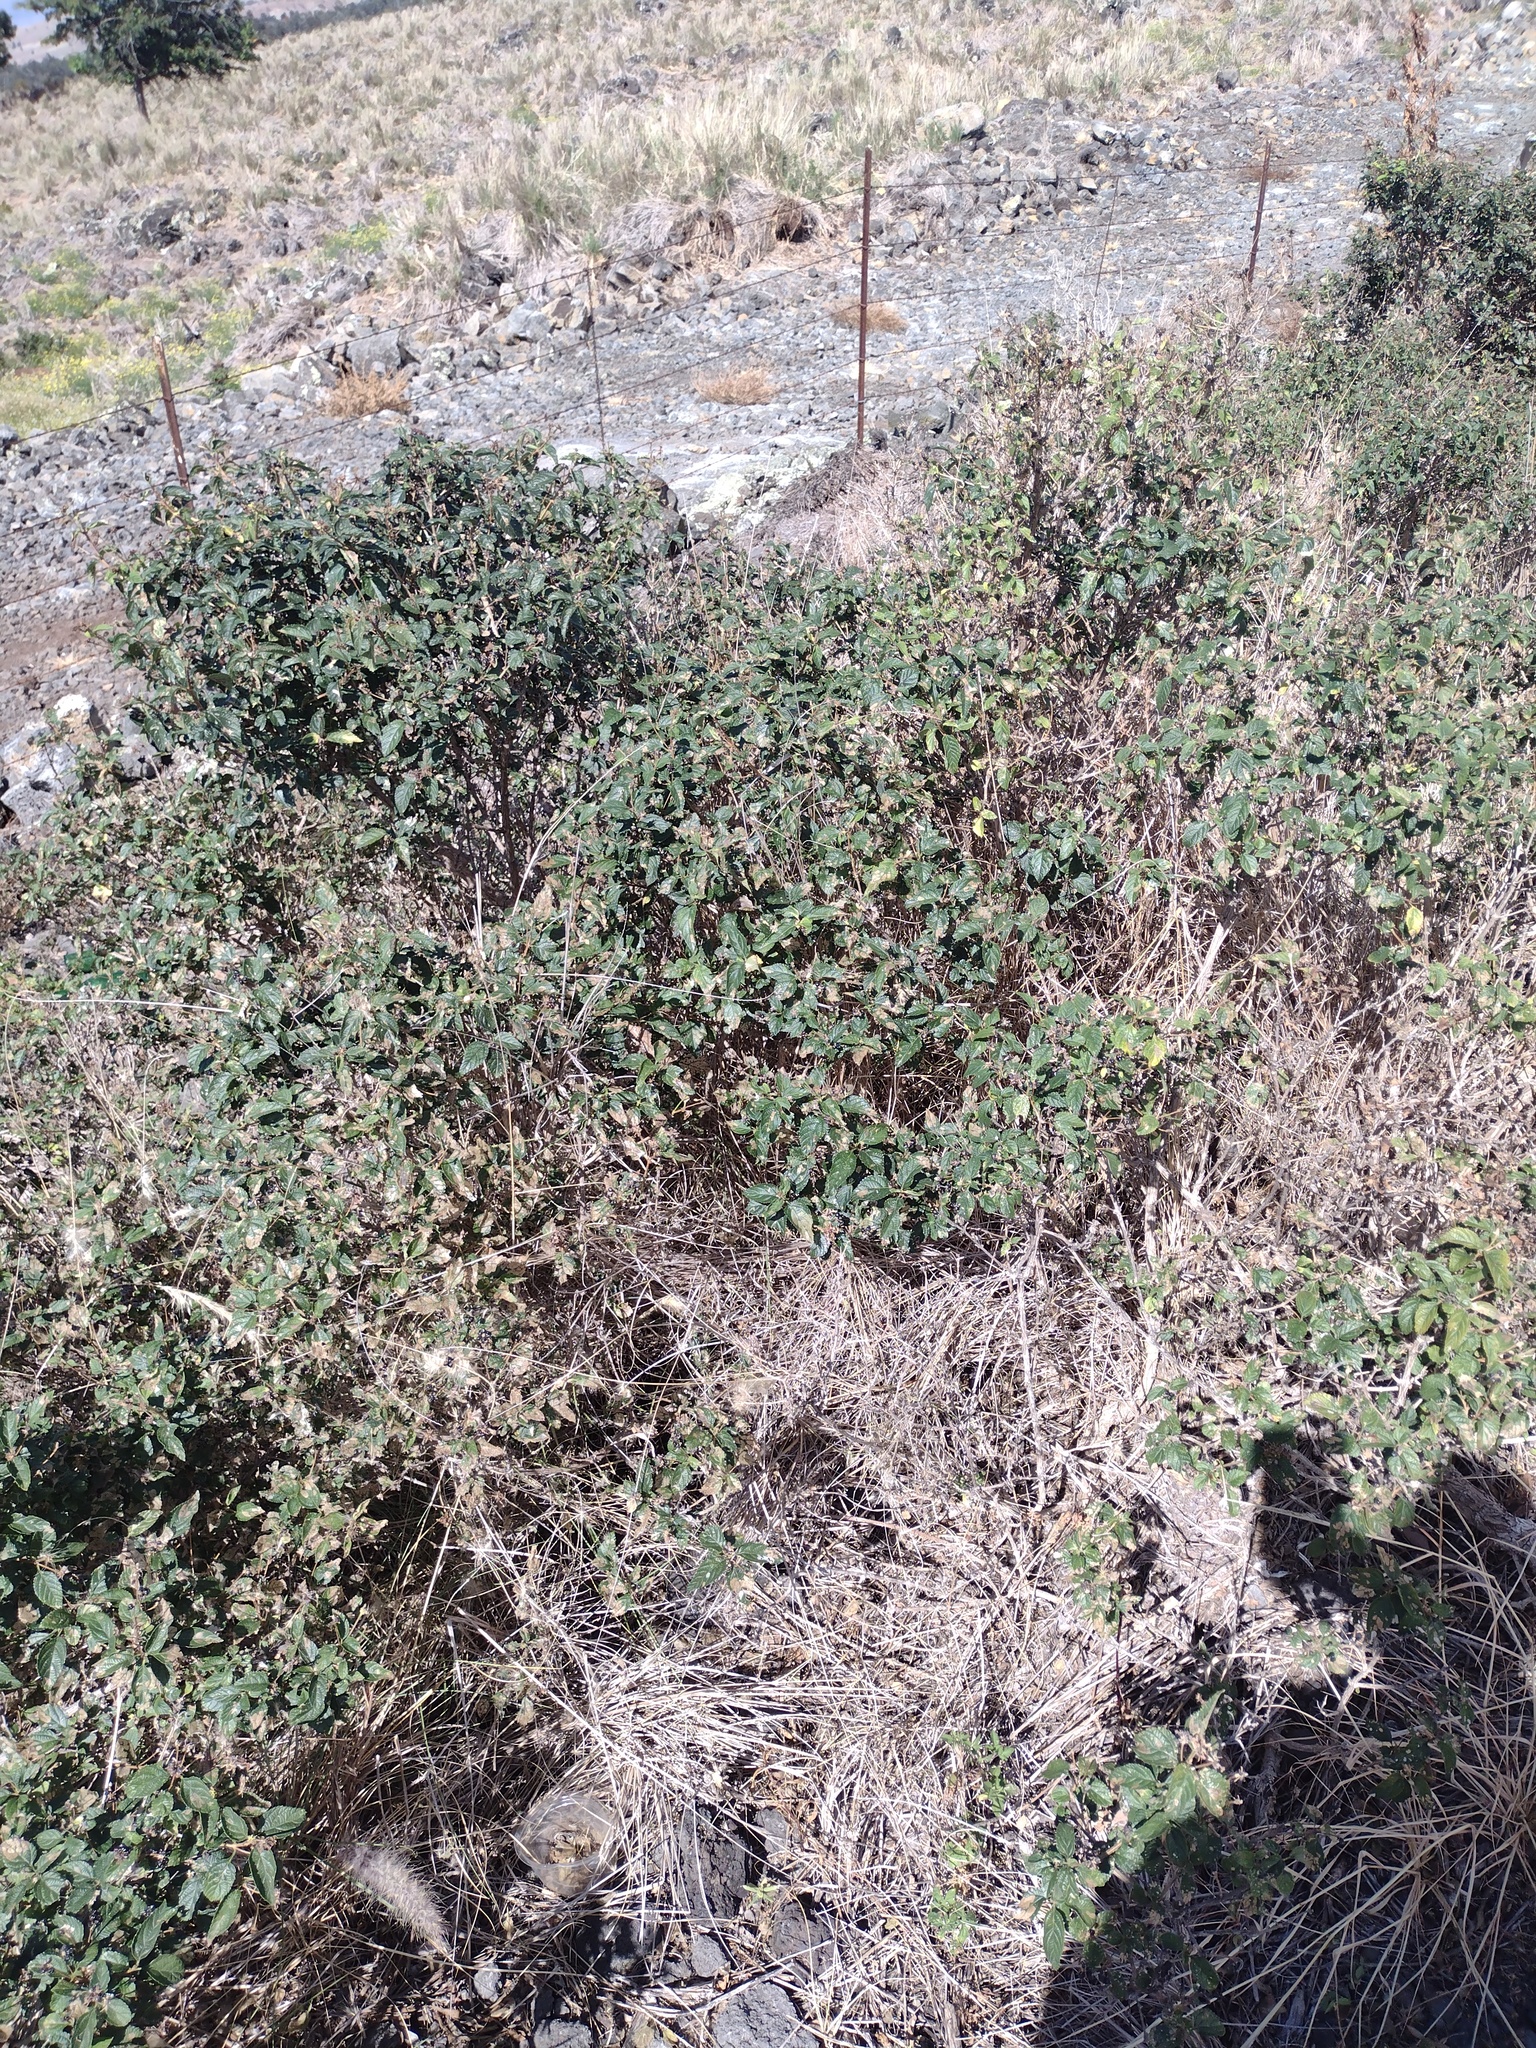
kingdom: Plantae
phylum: Tracheophyta
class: Magnoliopsida
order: Lamiales
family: Verbenaceae
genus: Lantana
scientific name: Lantana camara
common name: Lantana
